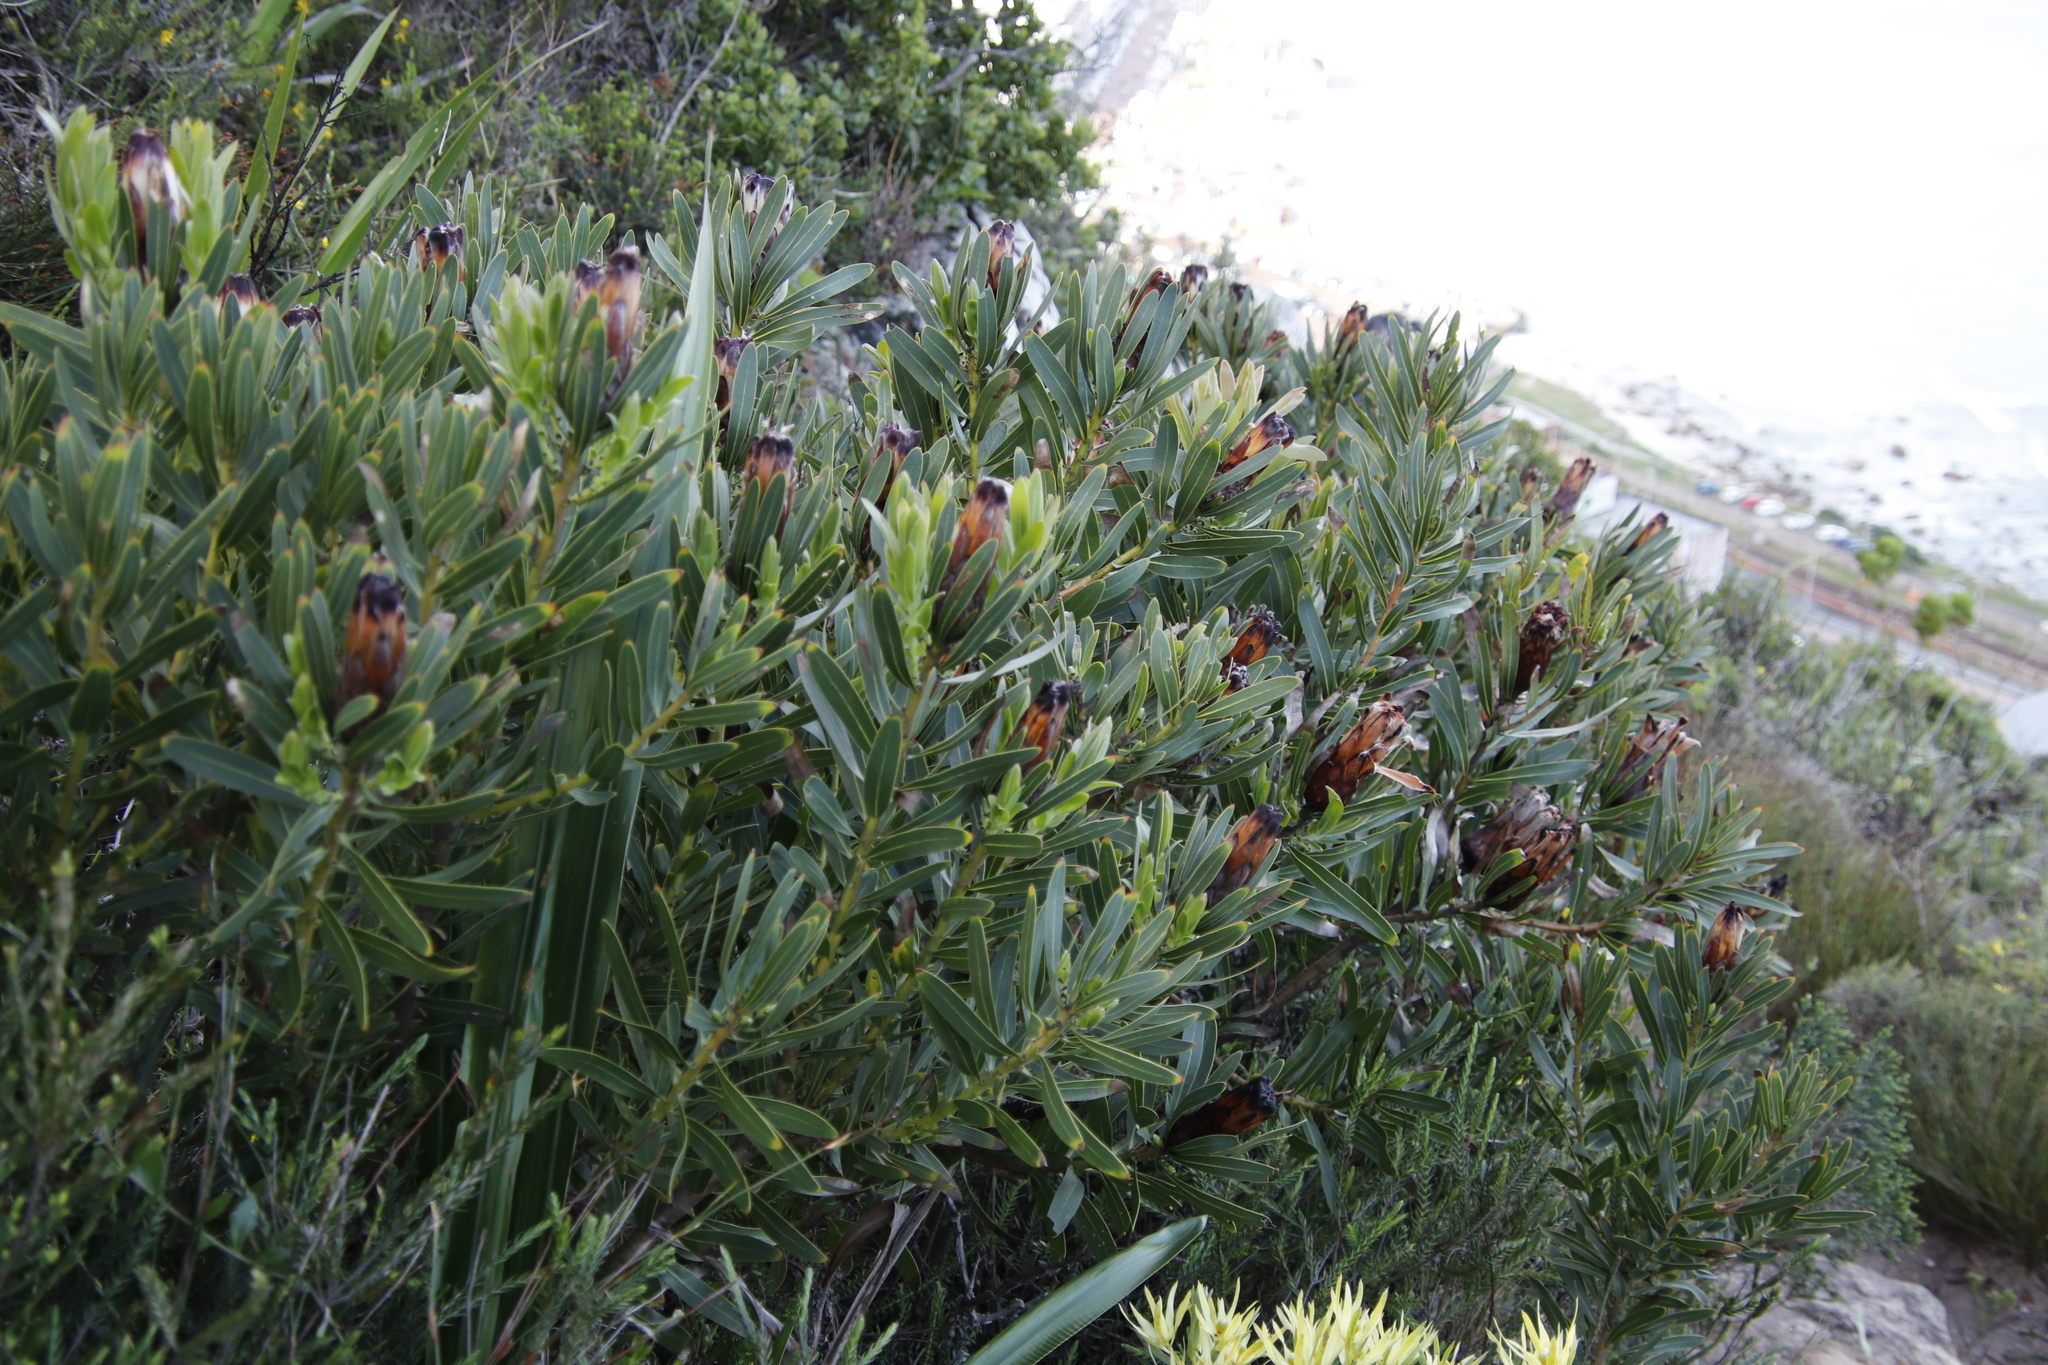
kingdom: Plantae
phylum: Tracheophyta
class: Magnoliopsida
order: Proteales
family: Proteaceae
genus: Protea
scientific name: Protea lepidocarpodendron
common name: Black-bearded protea
